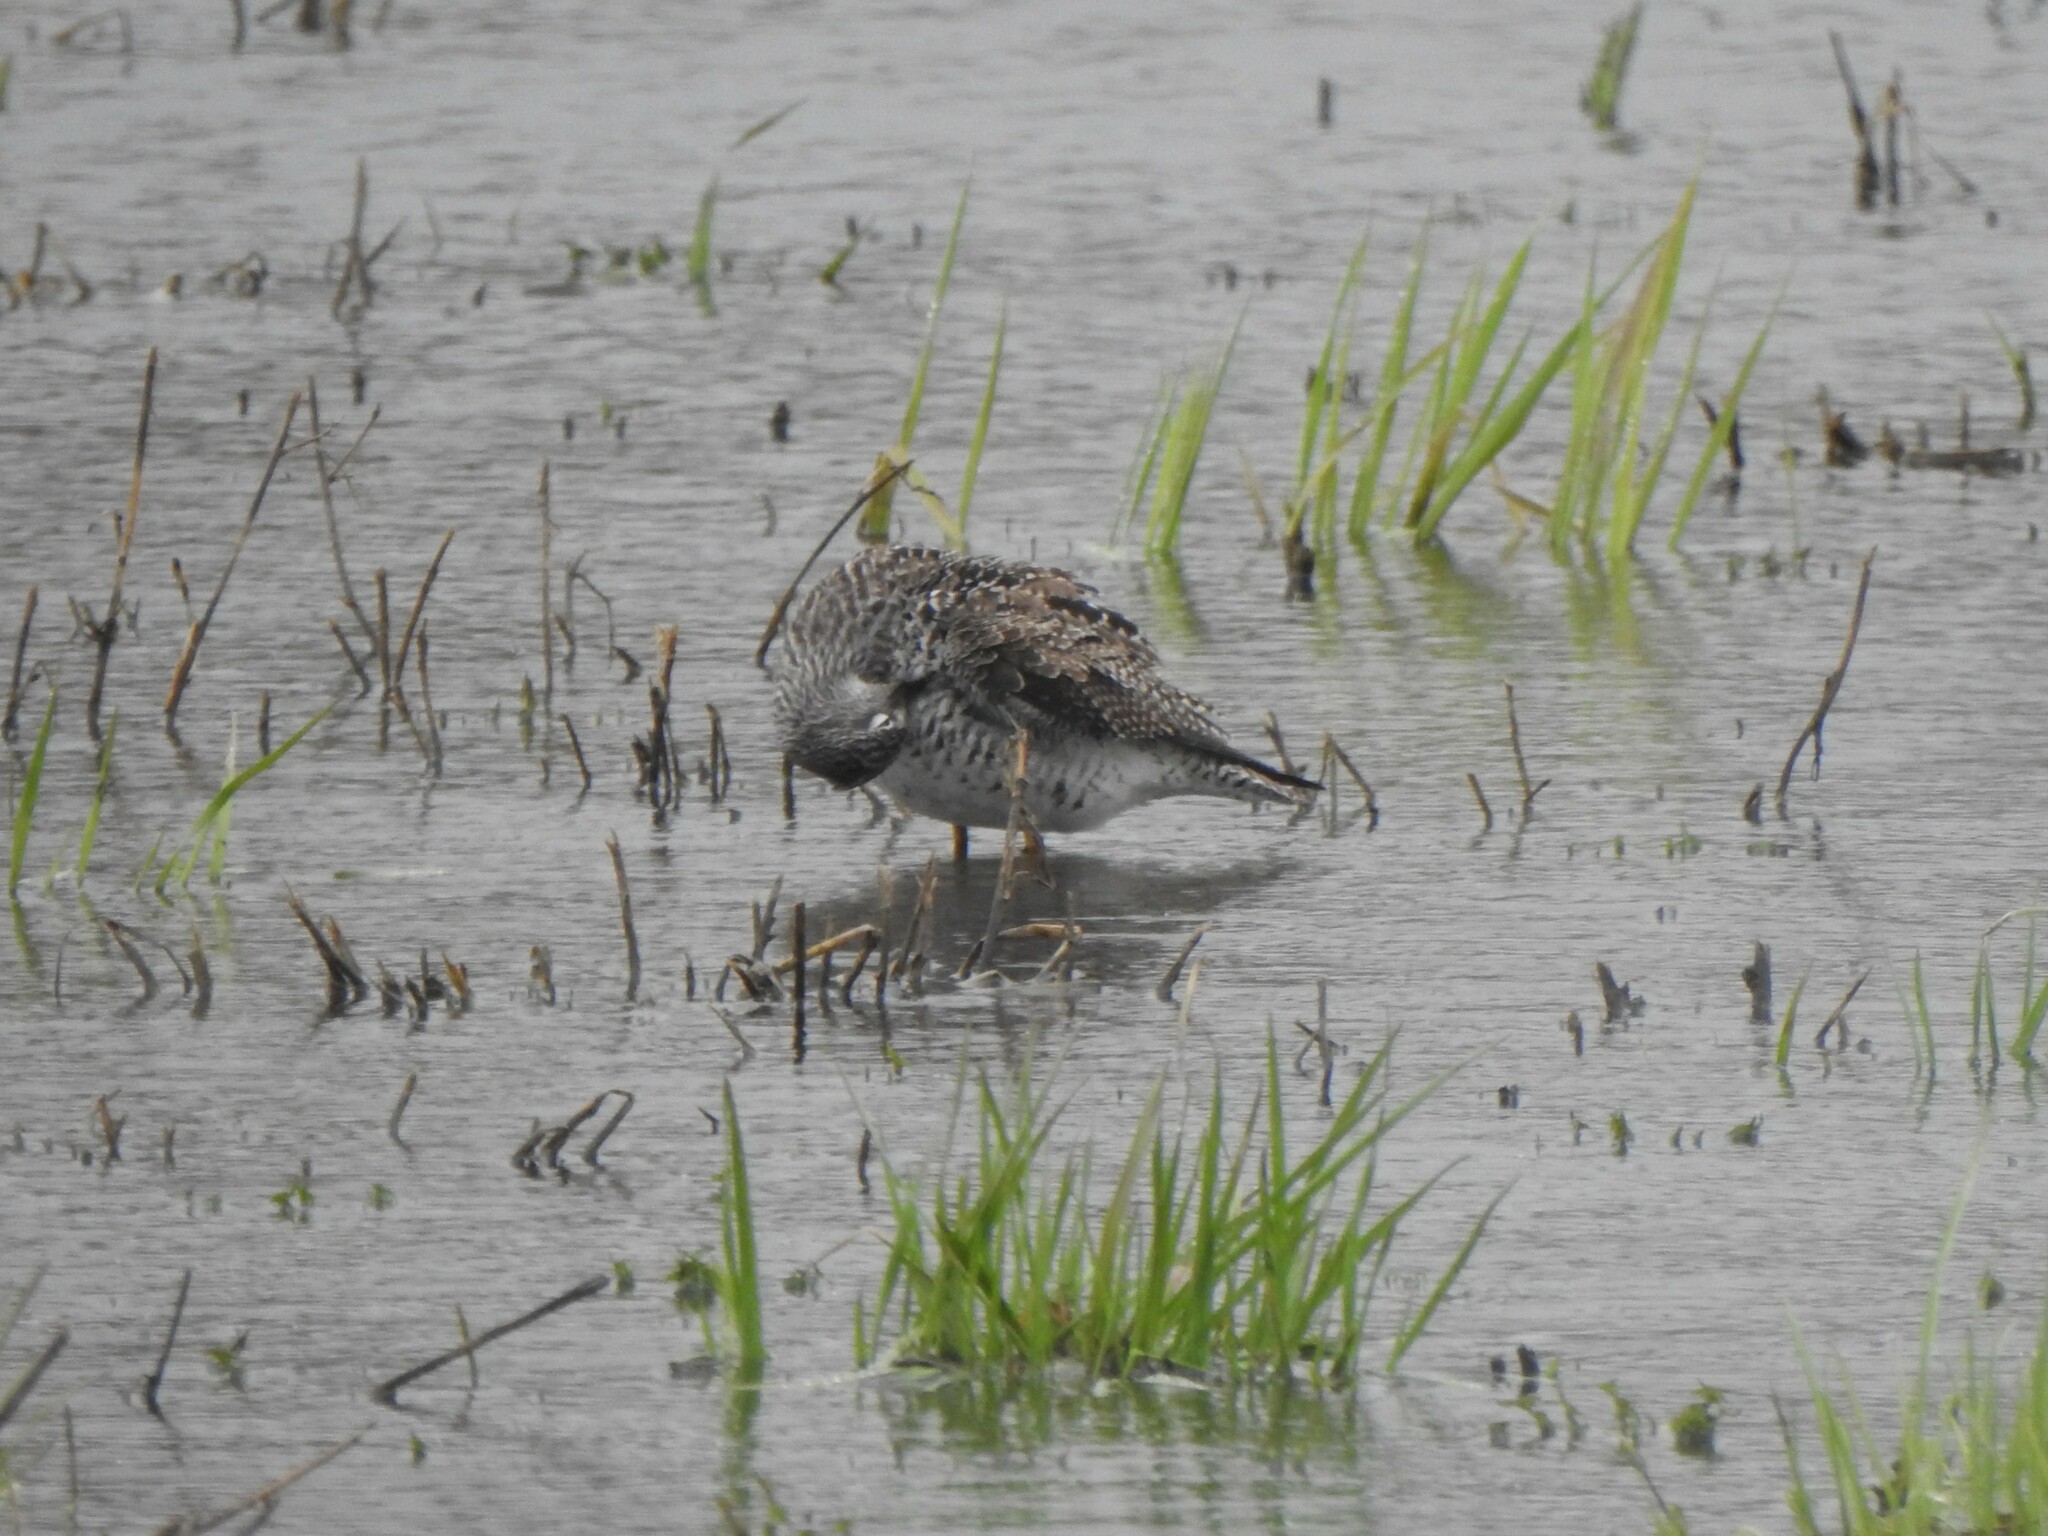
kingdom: Animalia
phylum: Chordata
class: Aves
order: Charadriiformes
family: Scolopacidae
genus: Tringa
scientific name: Tringa flavipes
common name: Lesser yellowlegs
